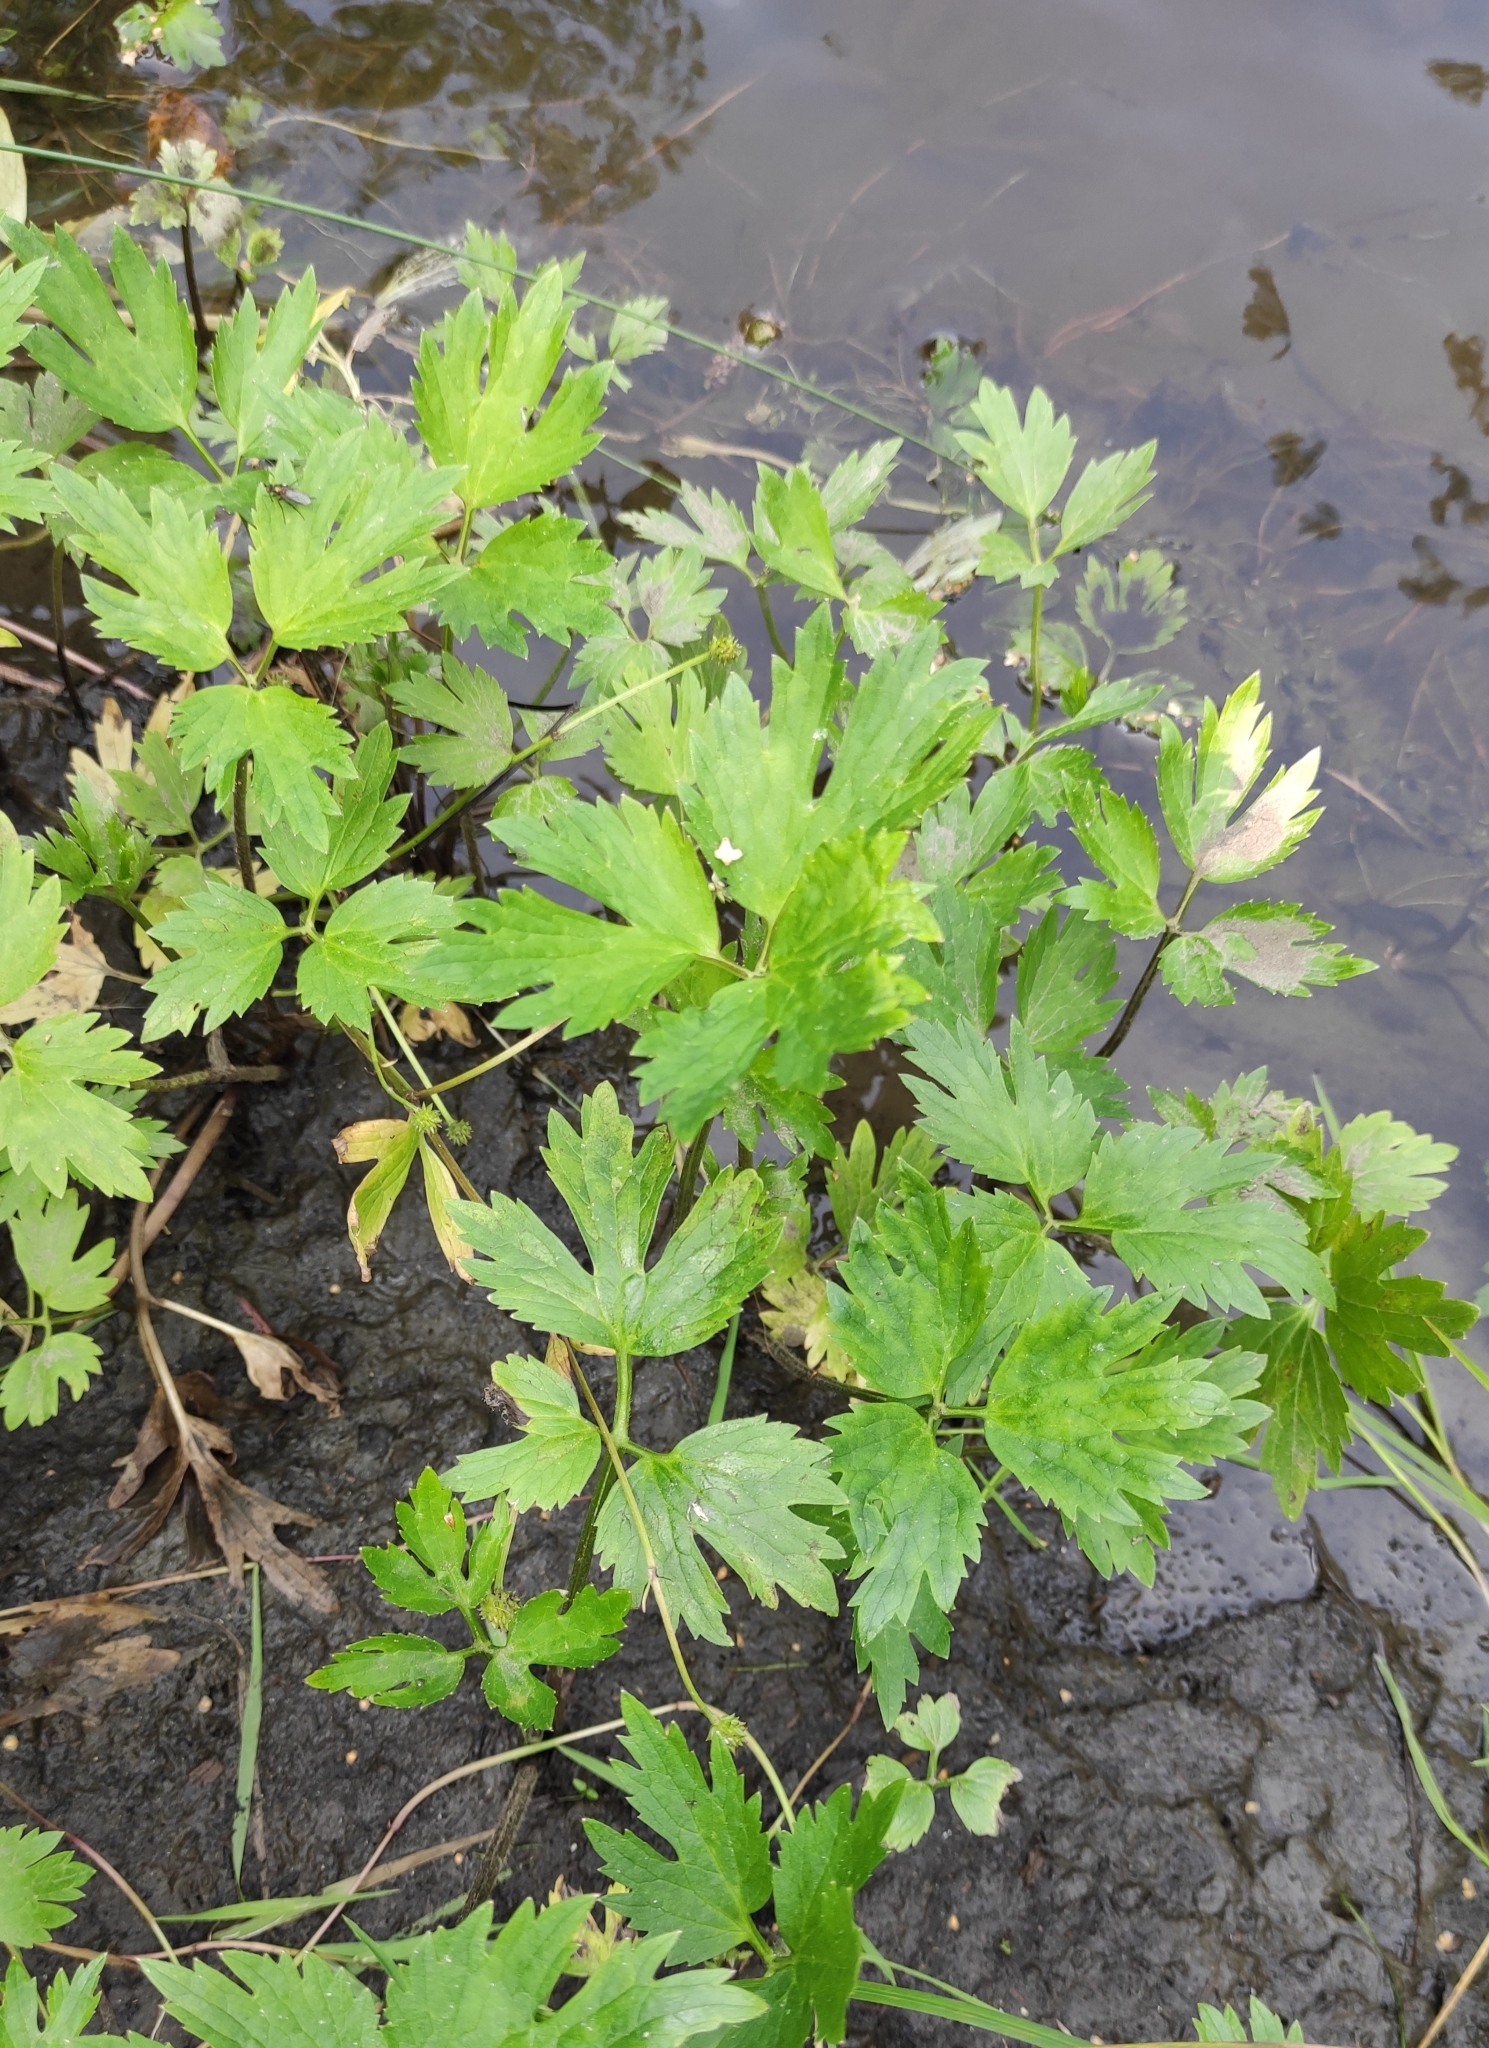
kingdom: Plantae
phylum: Tracheophyta
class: Magnoliopsida
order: Ranunculales
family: Ranunculaceae
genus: Ranunculus
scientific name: Ranunculus repens
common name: Creeping buttercup
